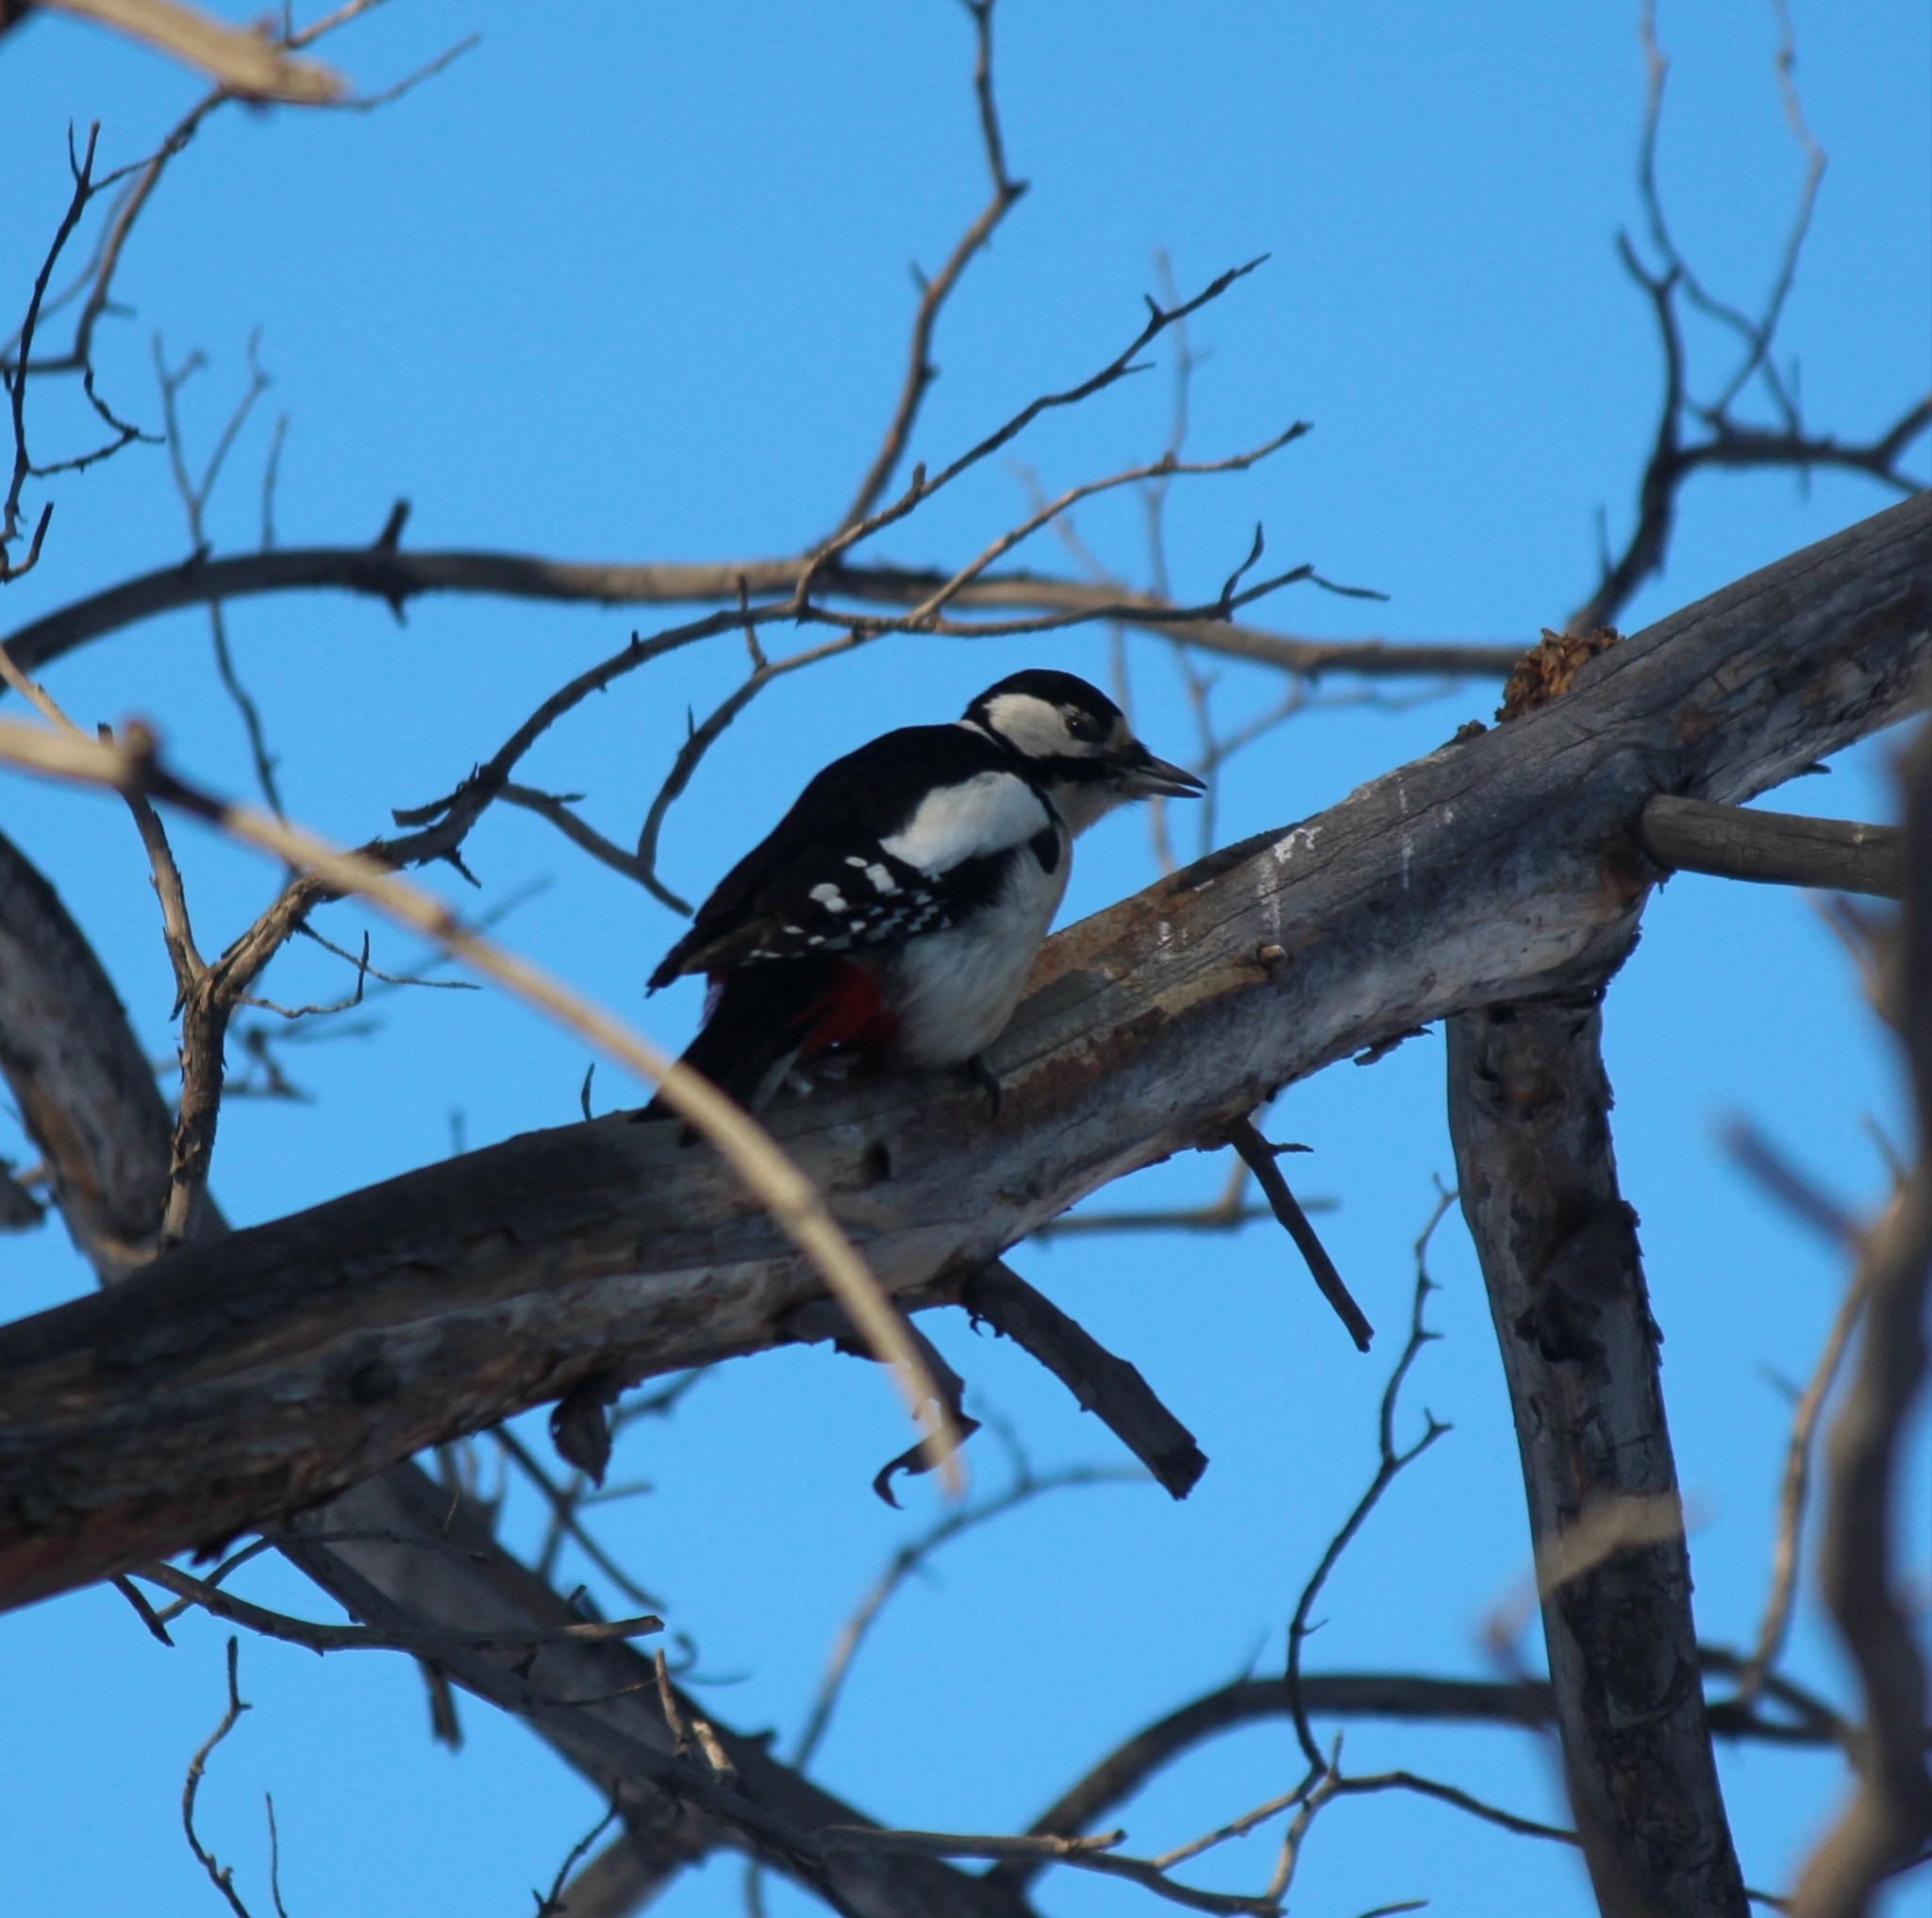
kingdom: Animalia
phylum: Chordata
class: Aves
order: Piciformes
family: Picidae
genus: Dendrocopos
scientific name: Dendrocopos major
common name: Great spotted woodpecker
